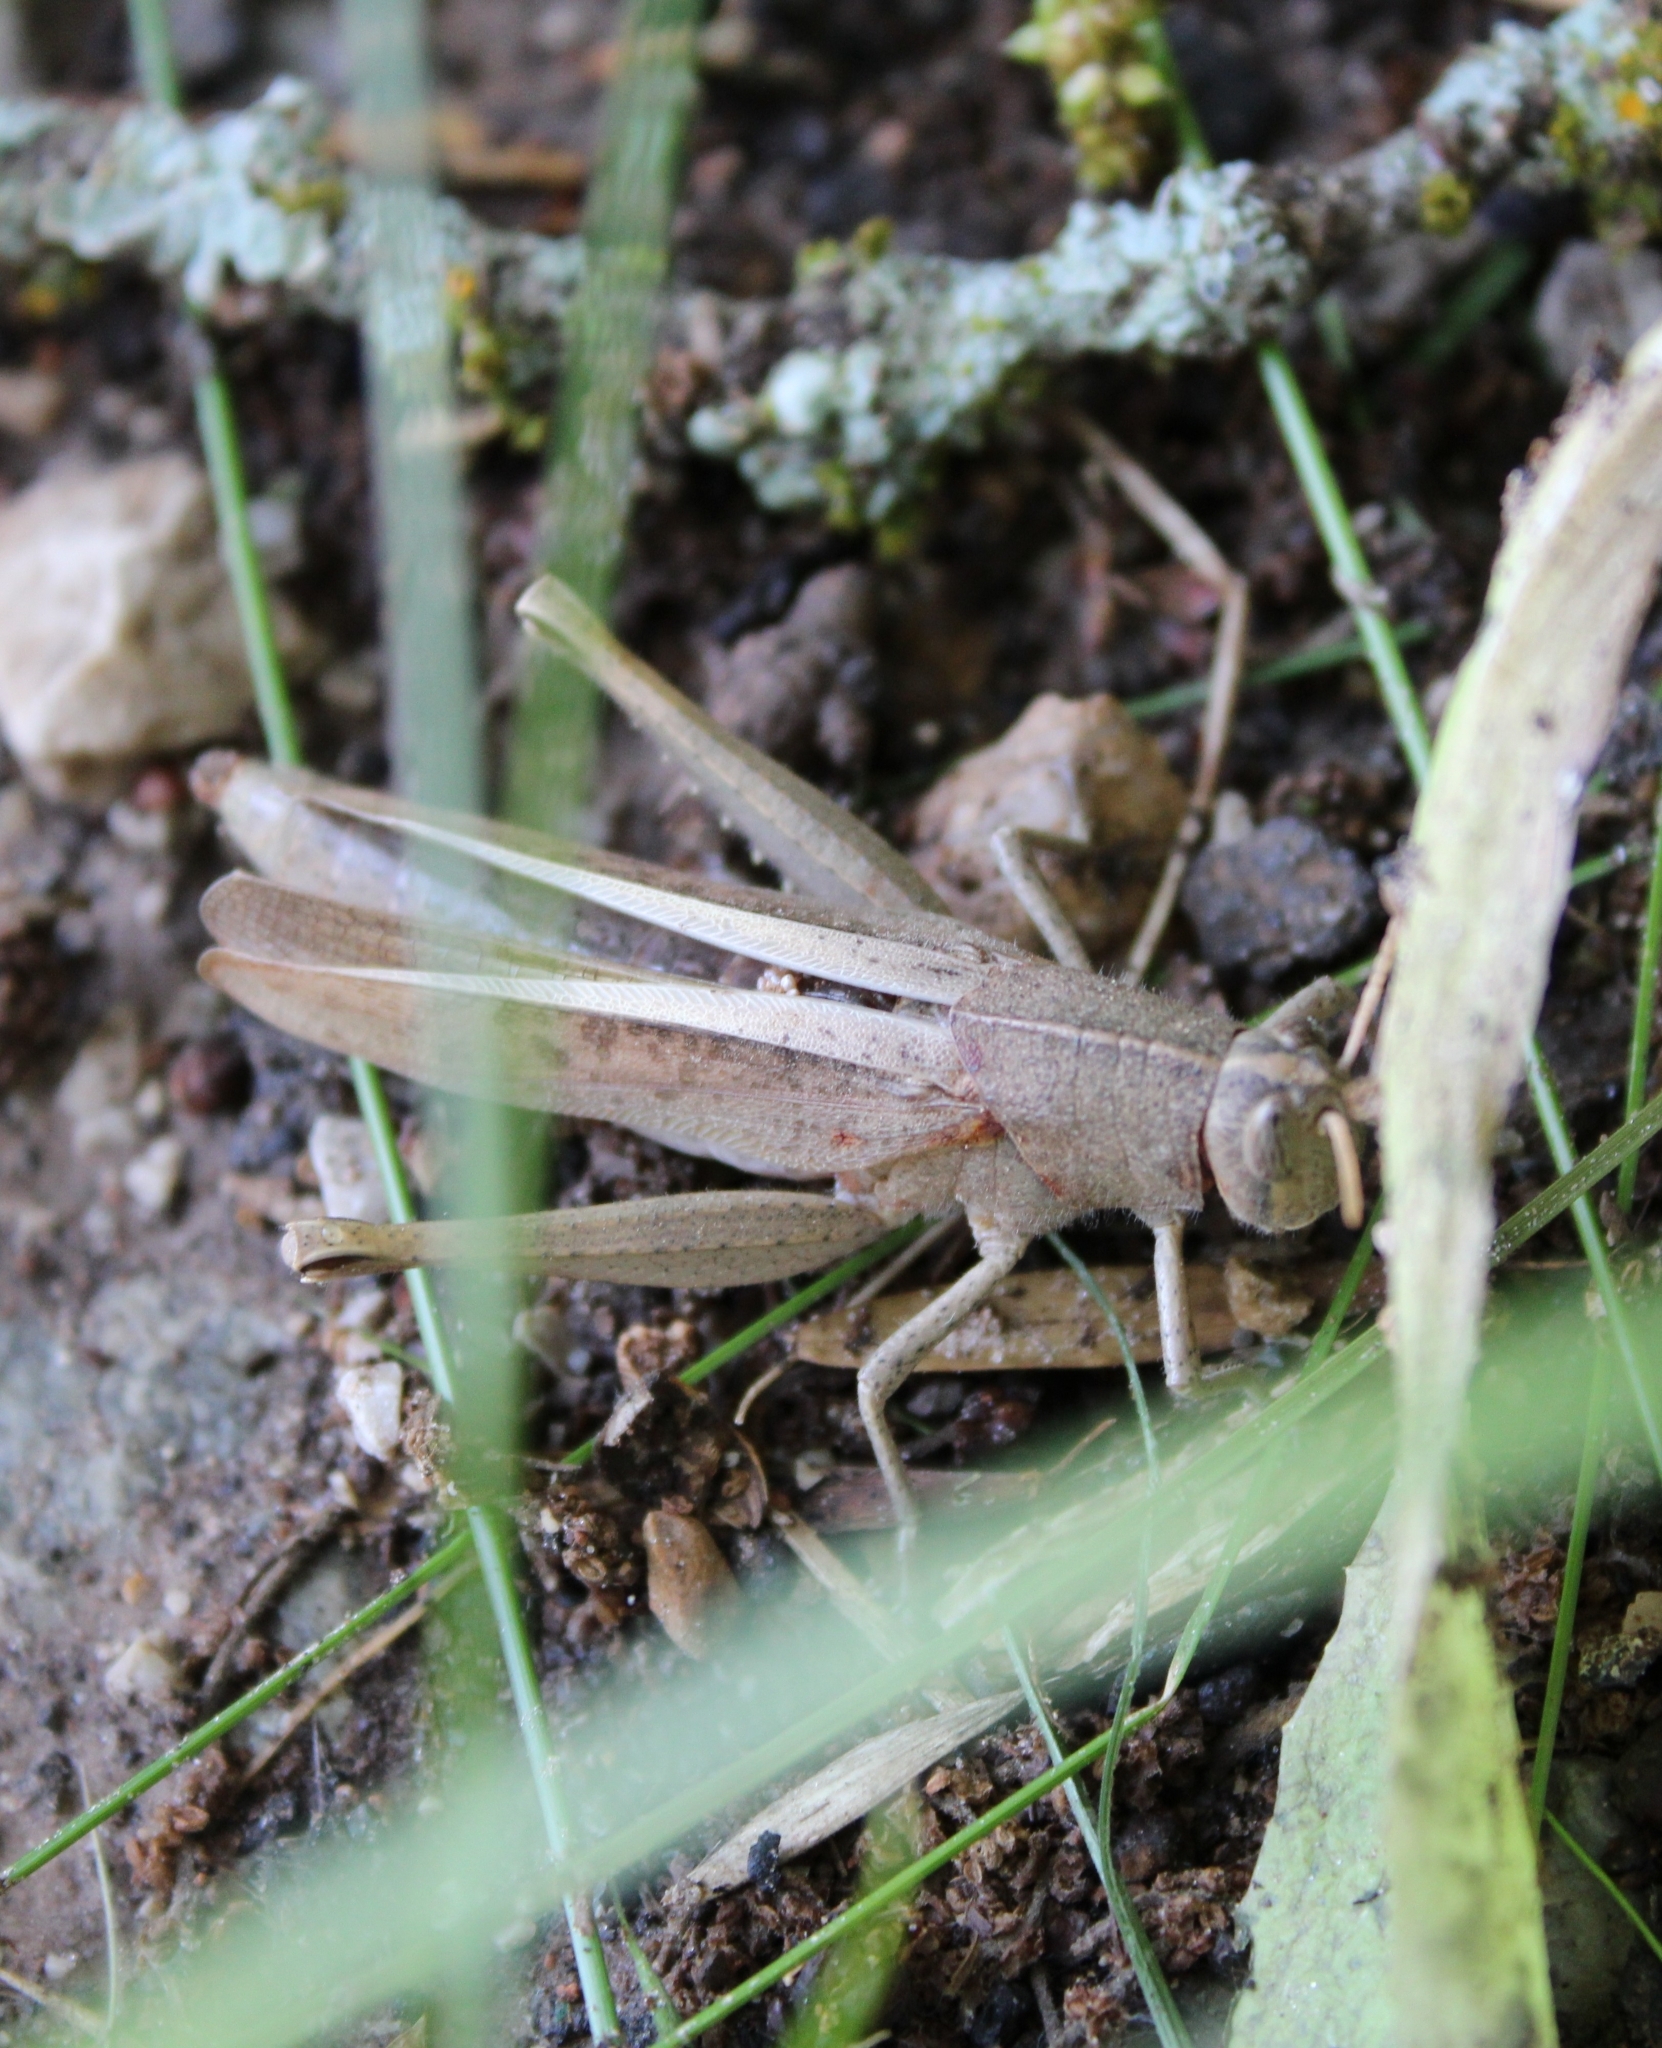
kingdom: Animalia
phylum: Arthropoda
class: Insecta
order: Orthoptera
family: Acrididae
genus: Schistocerca
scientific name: Schistocerca damnifica
